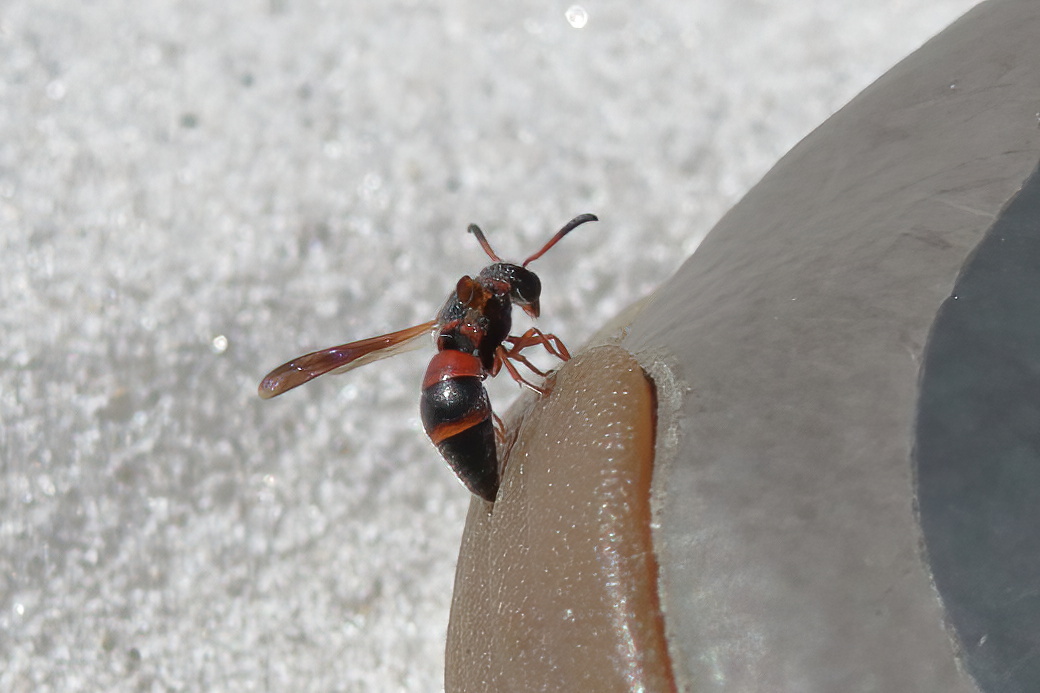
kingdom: Animalia
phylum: Arthropoda
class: Insecta
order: Hymenoptera
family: Eumenidae
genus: Pachodynerus
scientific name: Pachodynerus erynnis
